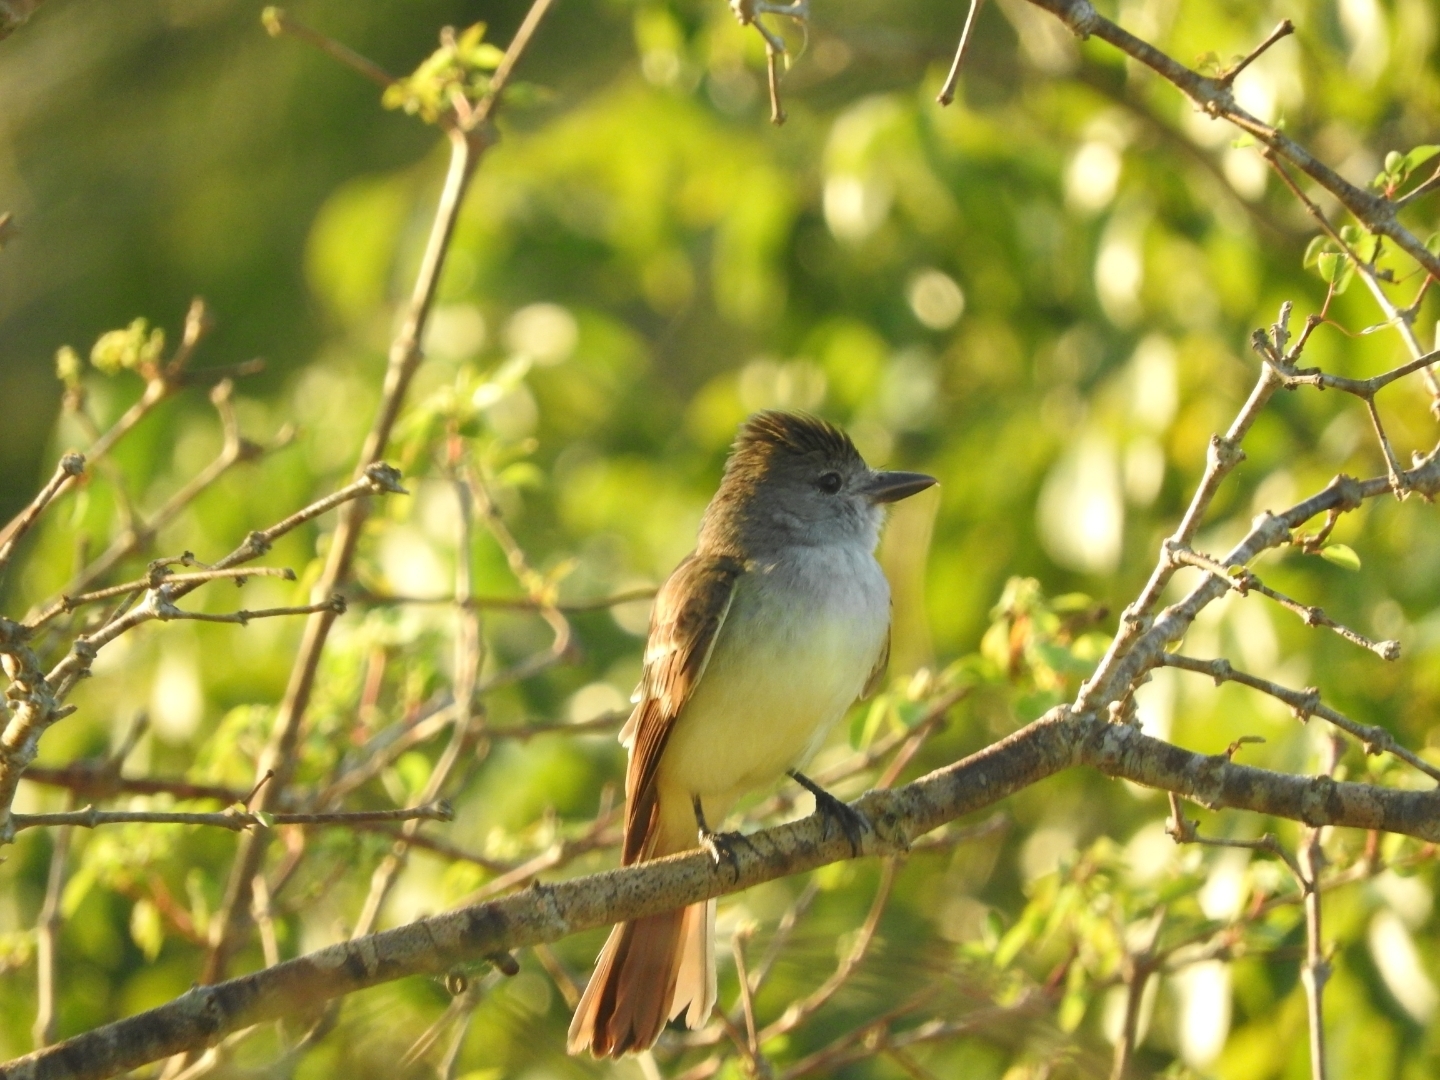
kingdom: Animalia
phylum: Chordata
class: Aves
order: Passeriformes
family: Tyrannidae
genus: Myiarchus
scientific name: Myiarchus tyrannulus
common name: Brown-crested flycatcher
